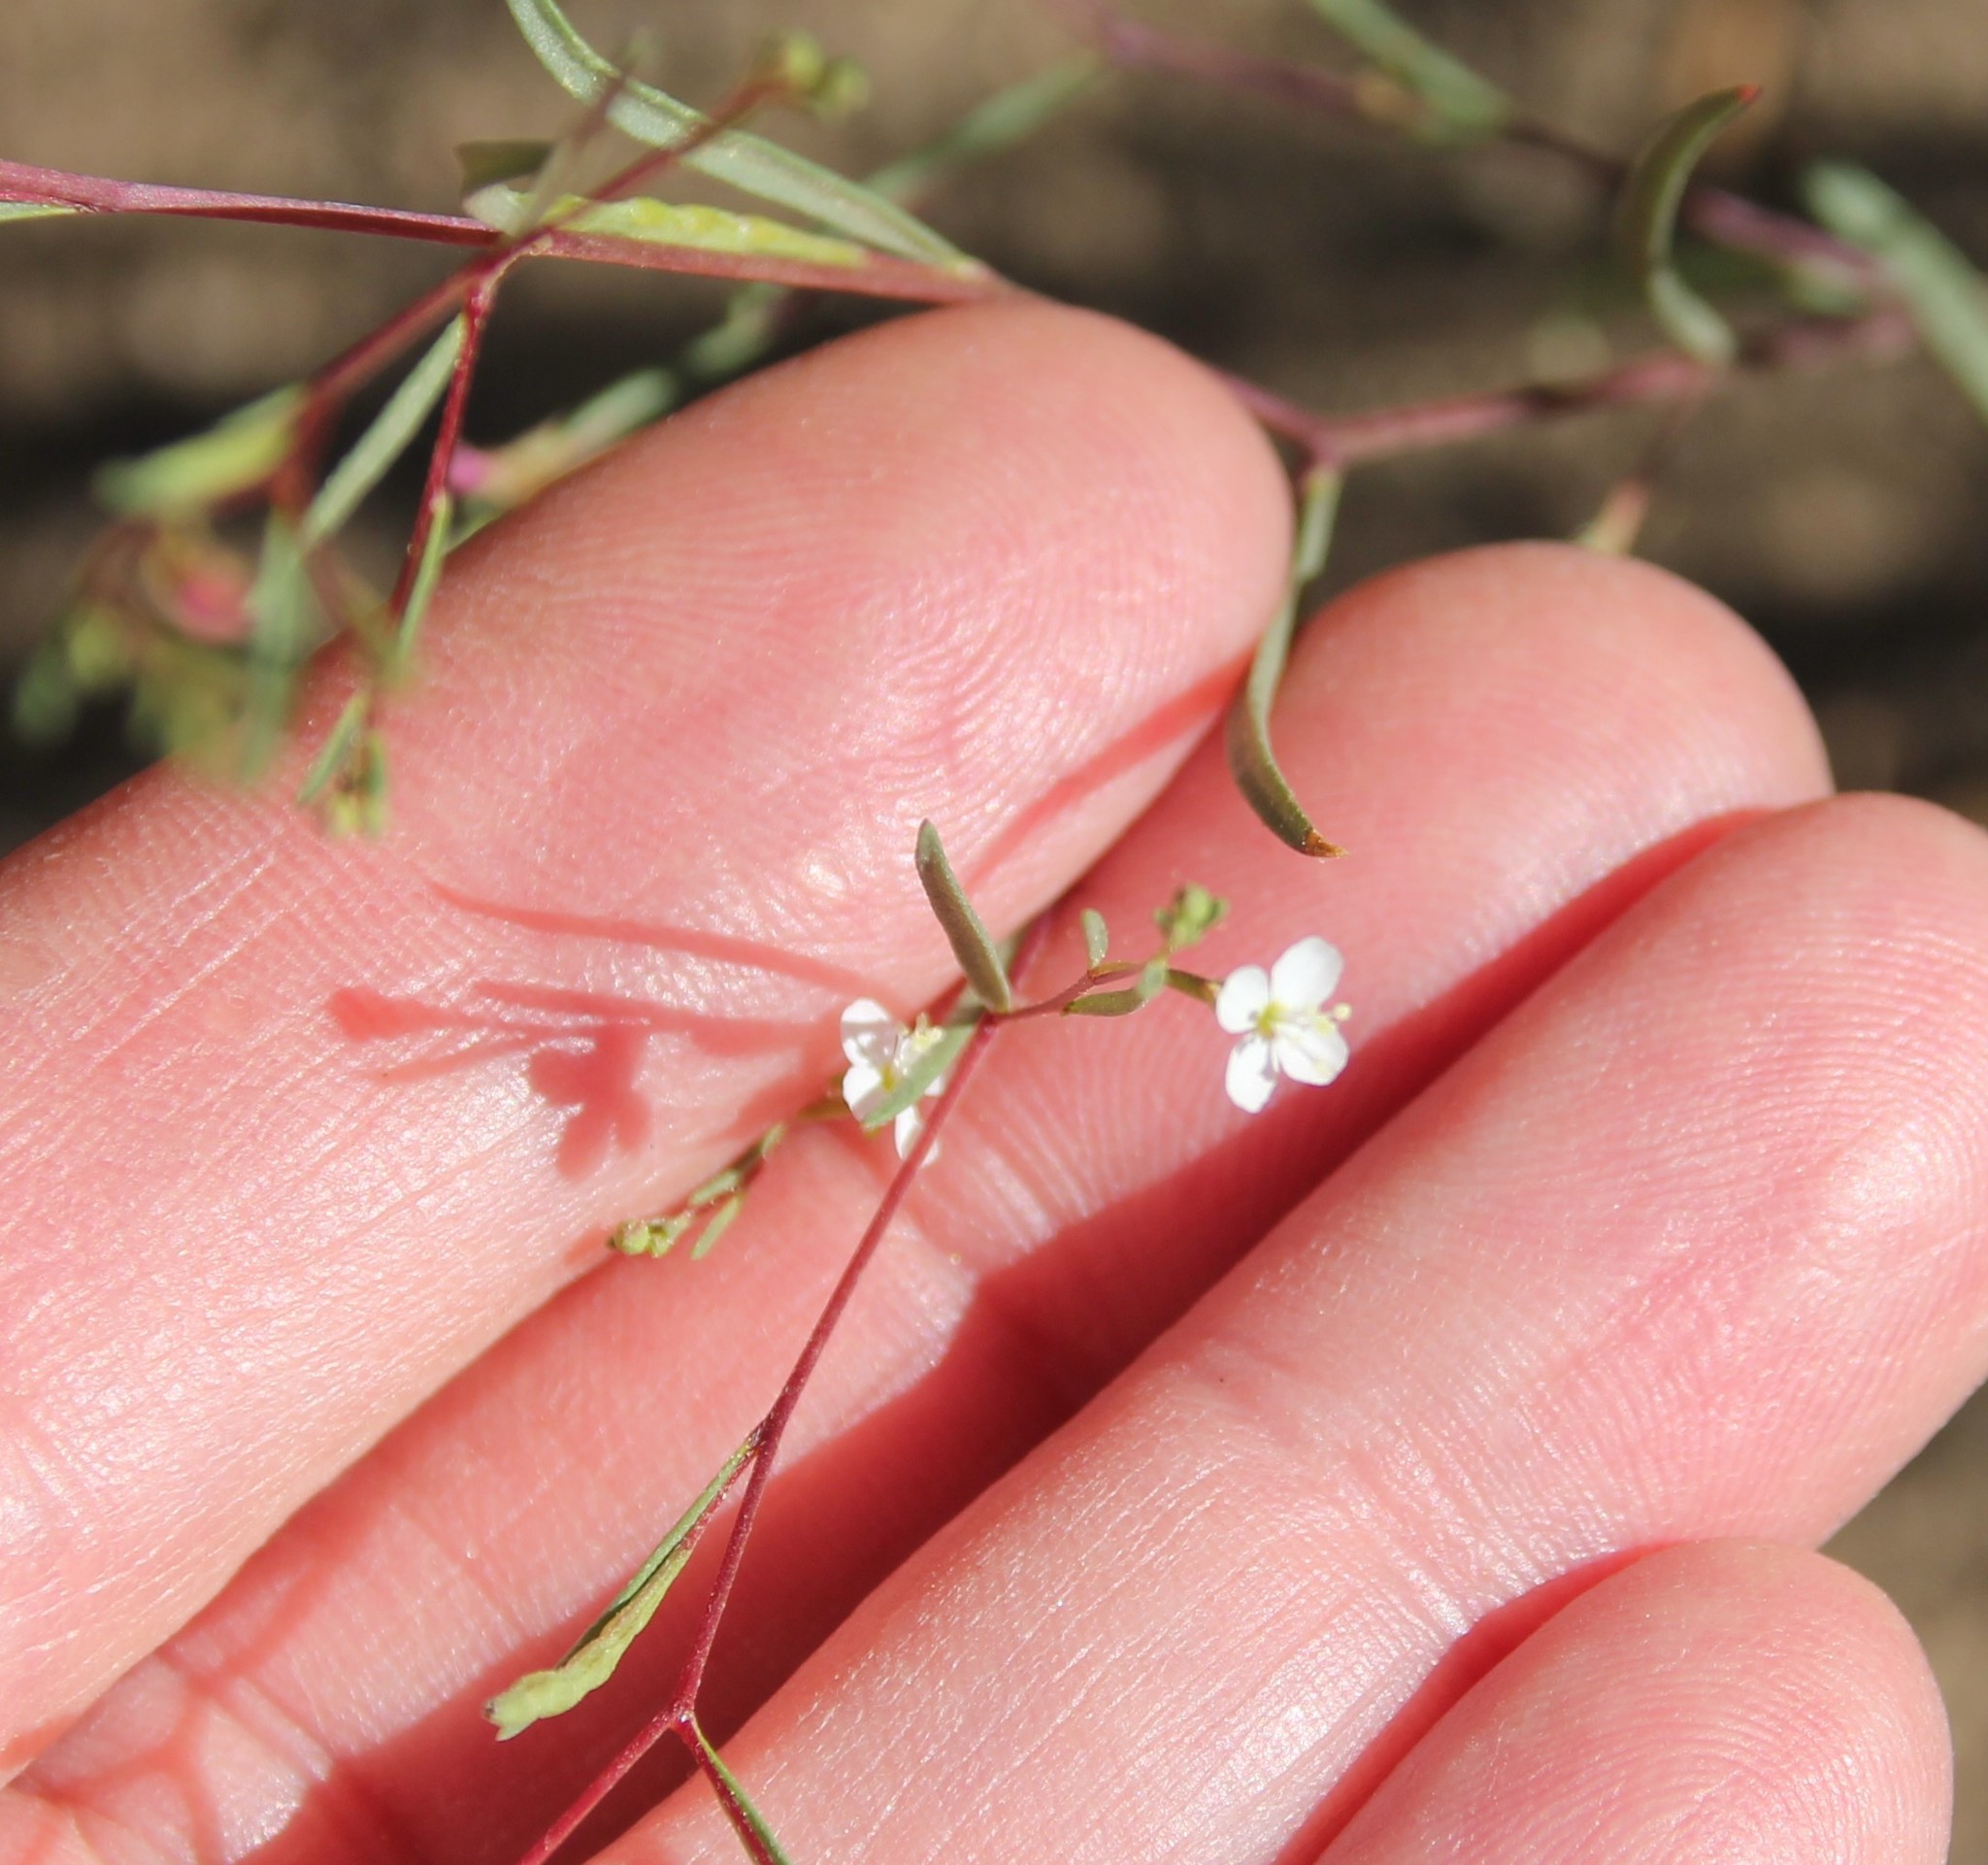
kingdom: Plantae
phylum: Tracheophyta
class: Magnoliopsida
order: Myrtales
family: Onagraceae
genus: Gayophytum
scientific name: Gayophytum diffusum
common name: Big-flowered groundsmoke
